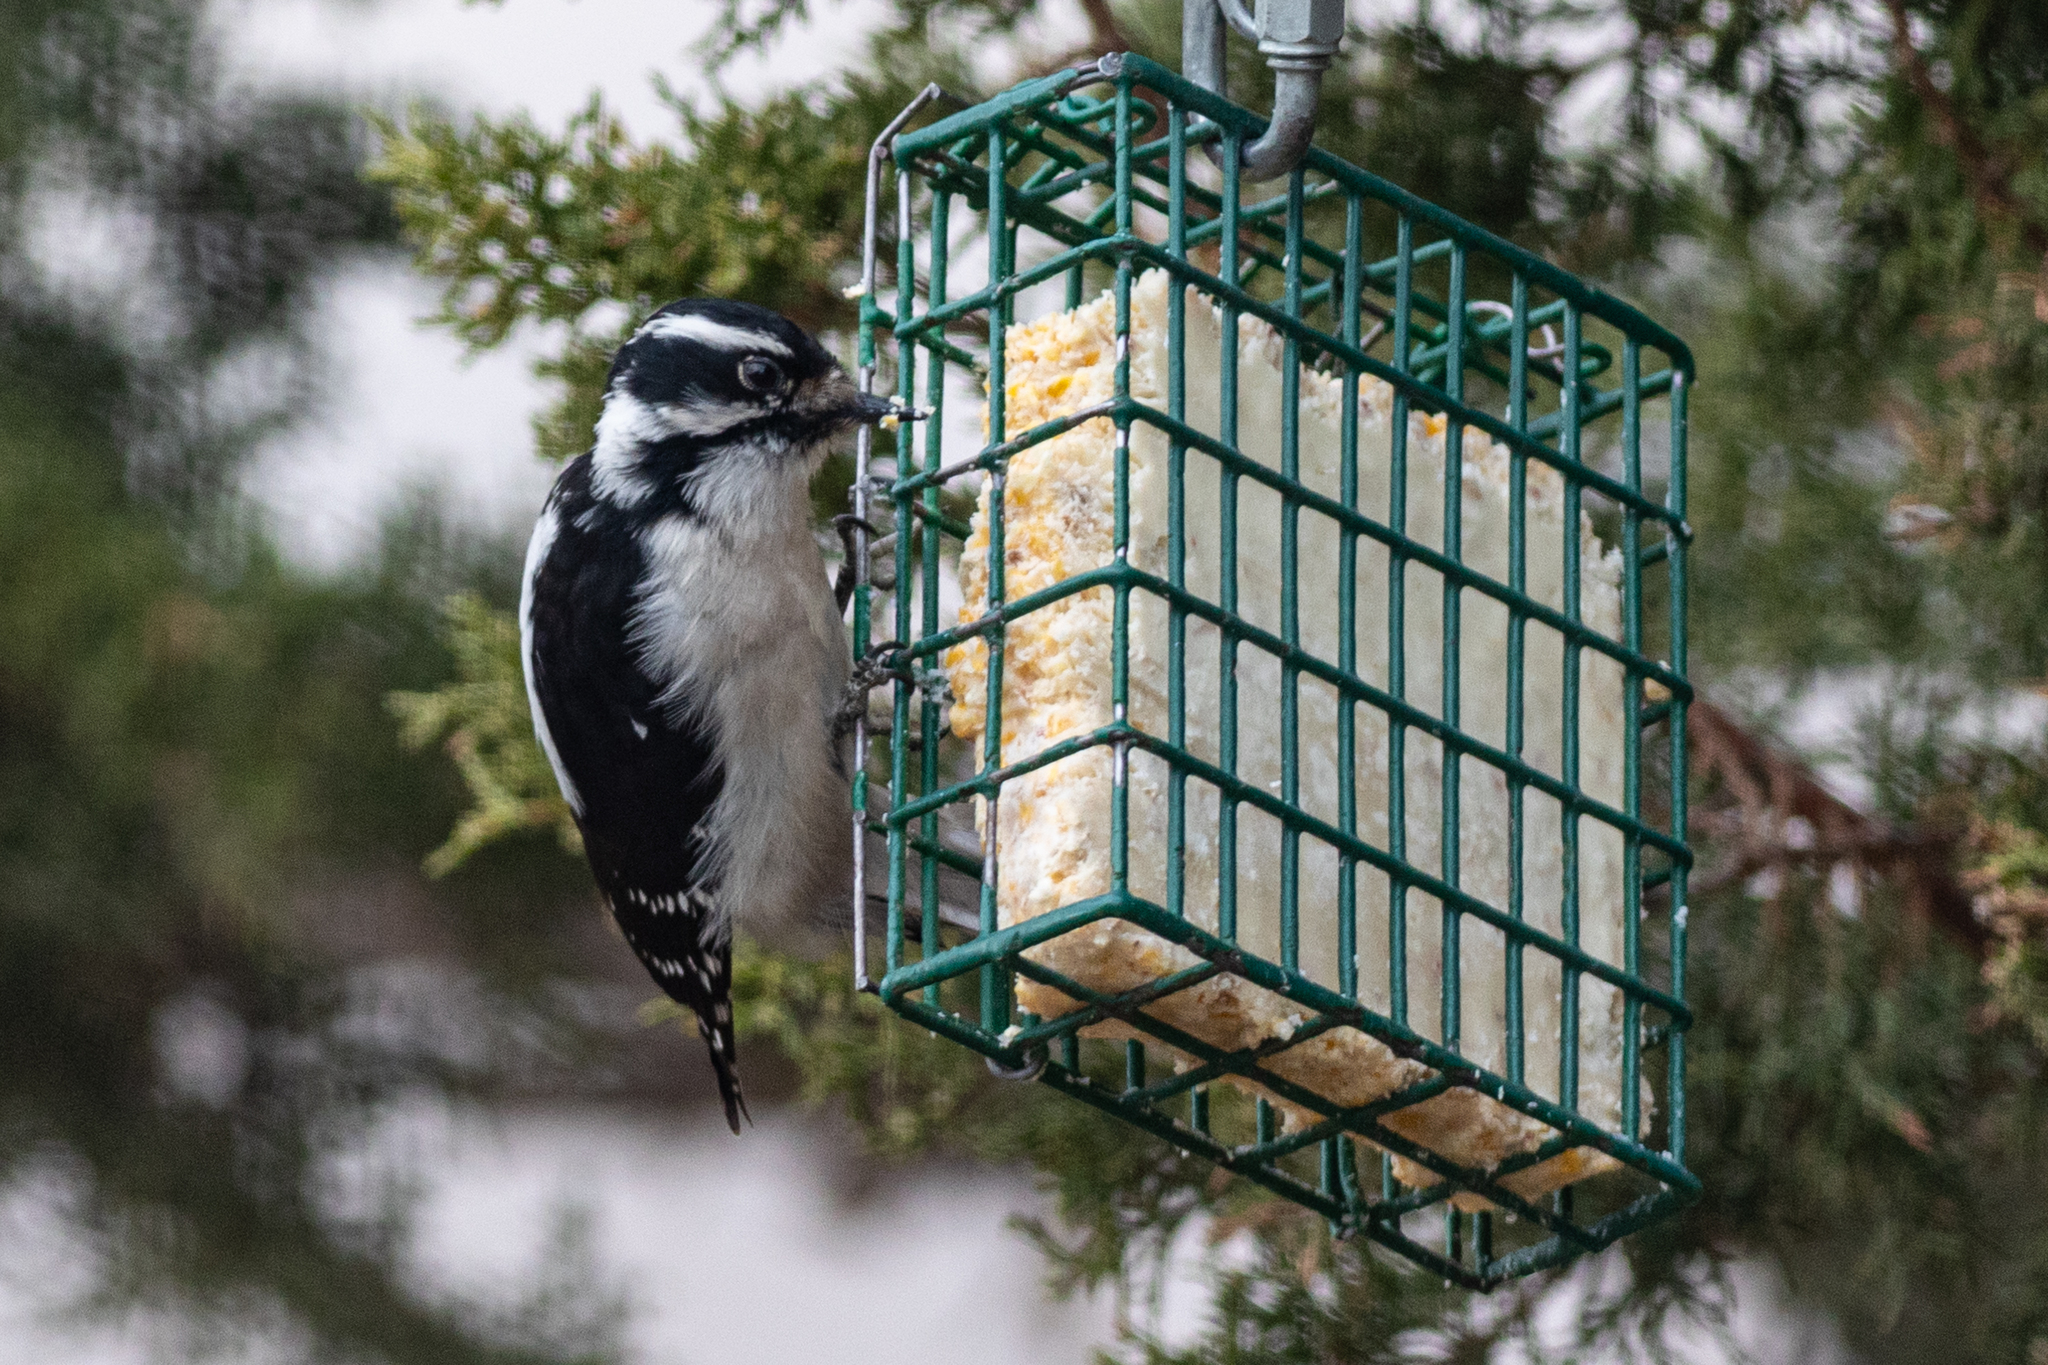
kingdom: Animalia
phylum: Chordata
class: Aves
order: Piciformes
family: Picidae
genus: Dryobates
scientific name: Dryobates pubescens
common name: Downy woodpecker
